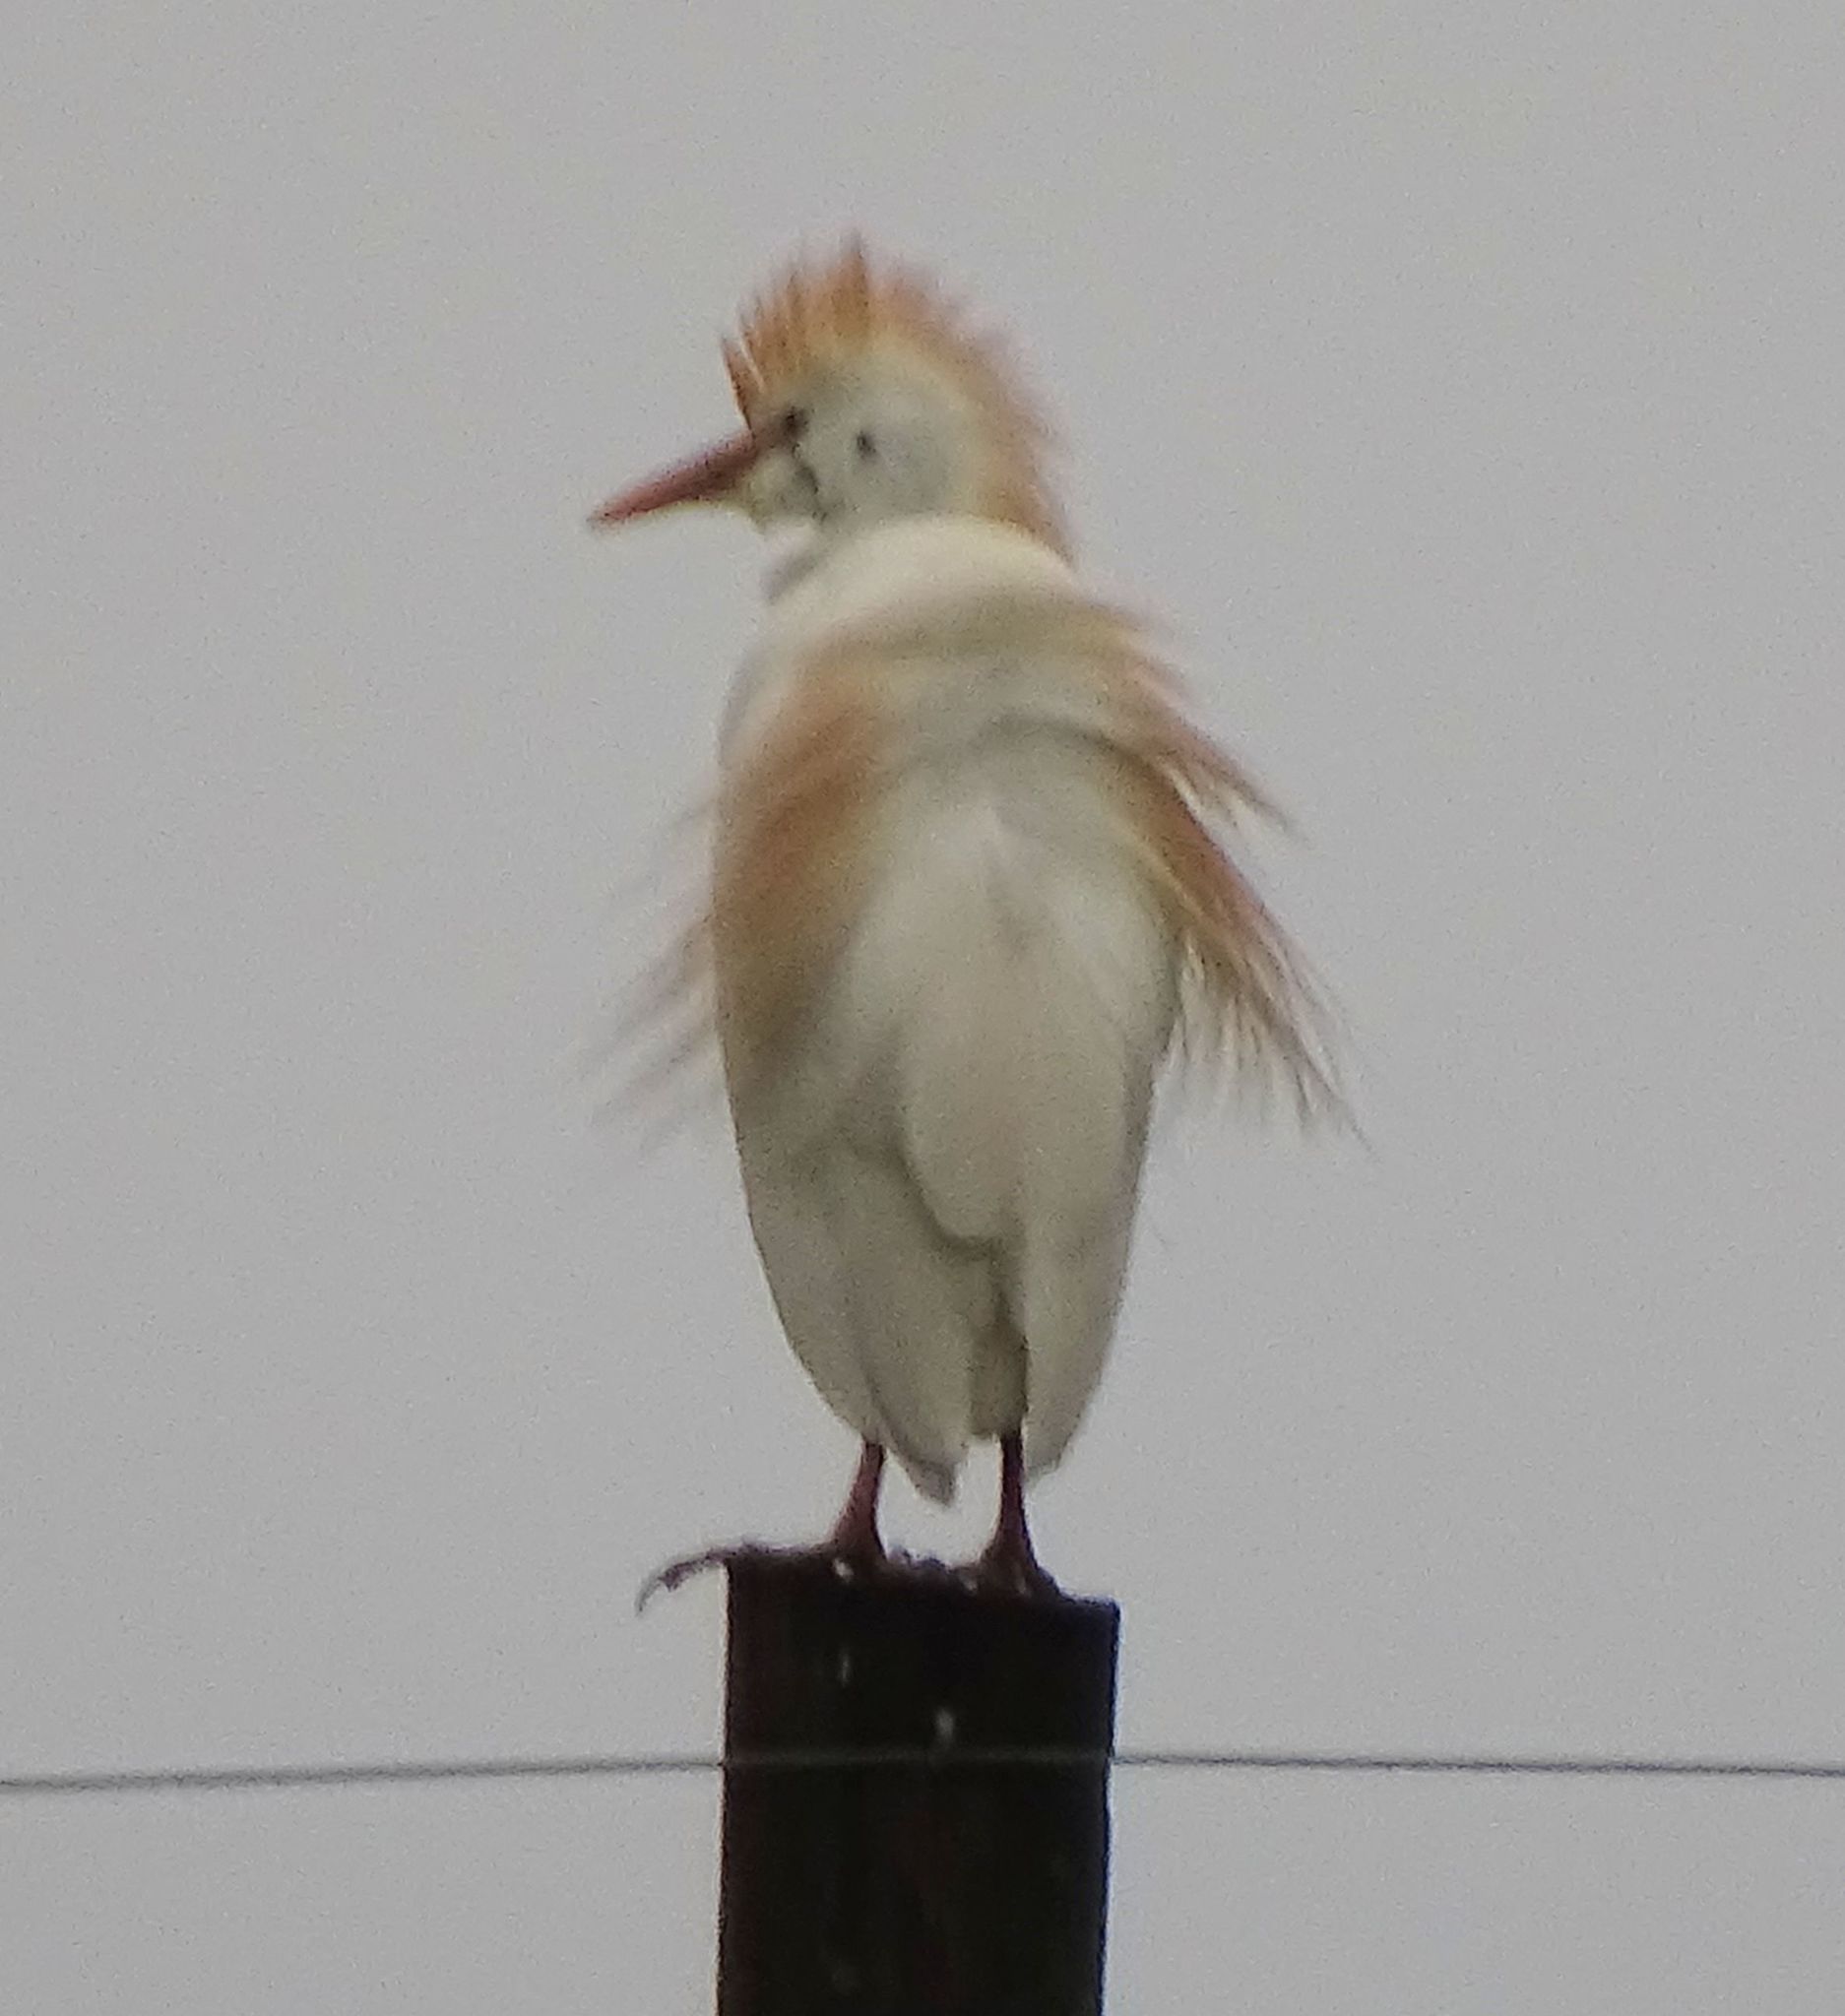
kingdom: Animalia
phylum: Chordata
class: Aves
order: Pelecaniformes
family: Ardeidae
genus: Bubulcus
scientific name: Bubulcus ibis
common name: Cattle egret
